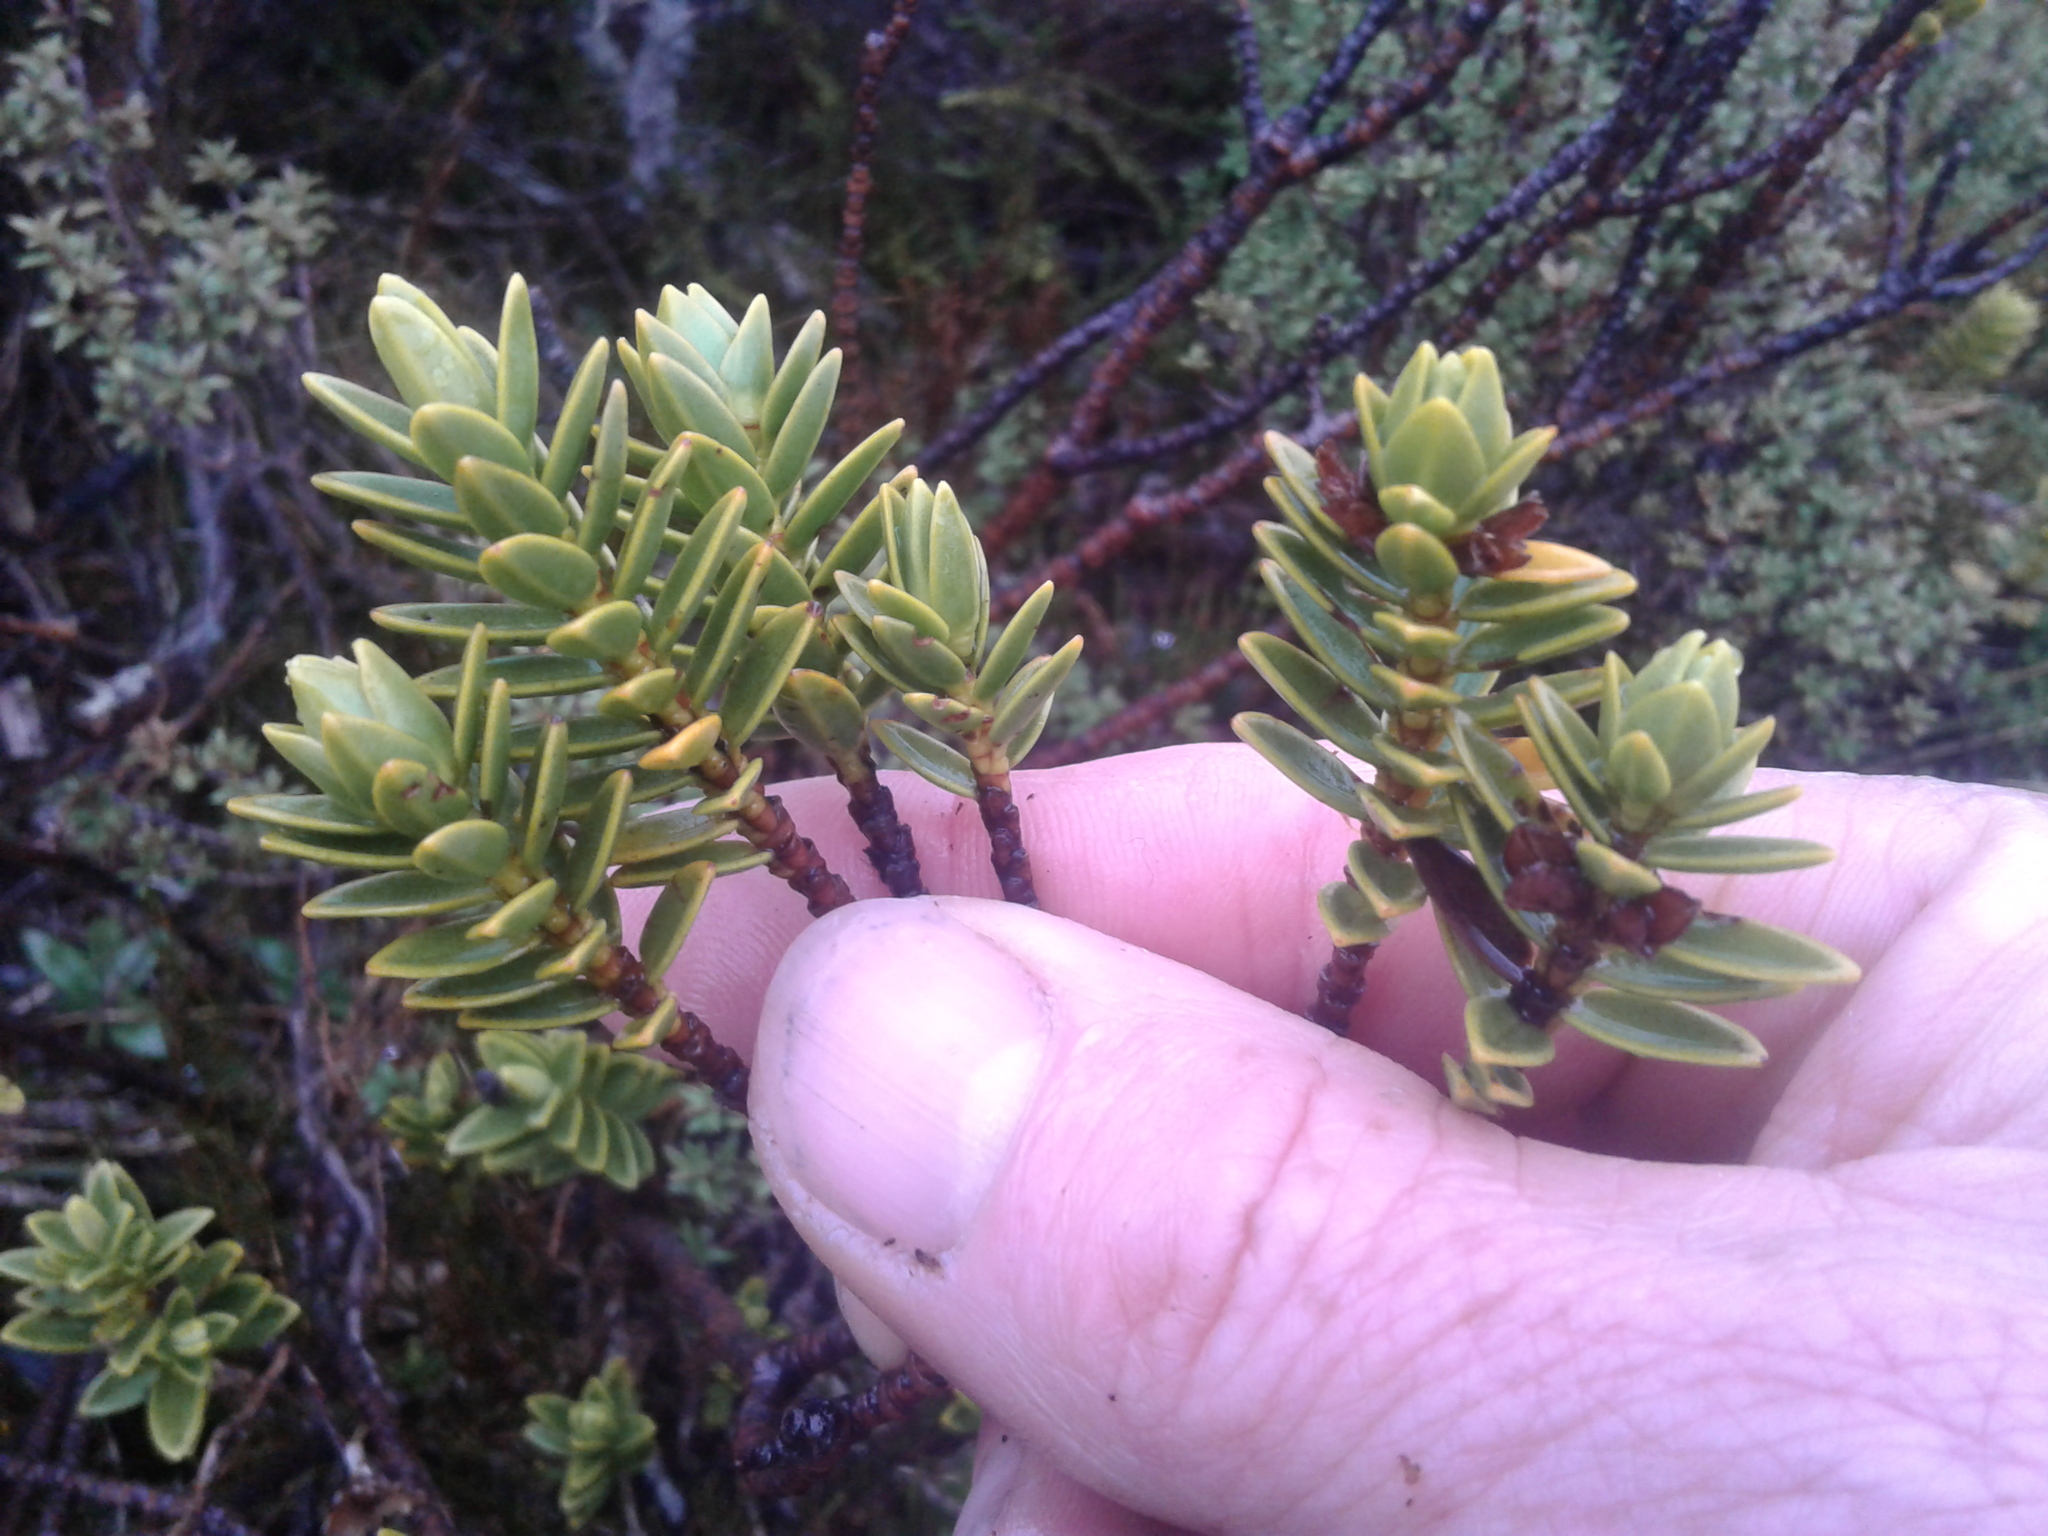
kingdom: Plantae
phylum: Tracheophyta
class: Magnoliopsida
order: Malvales
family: Thymelaeaceae
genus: Pimelea
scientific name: Pimelea gnidia
